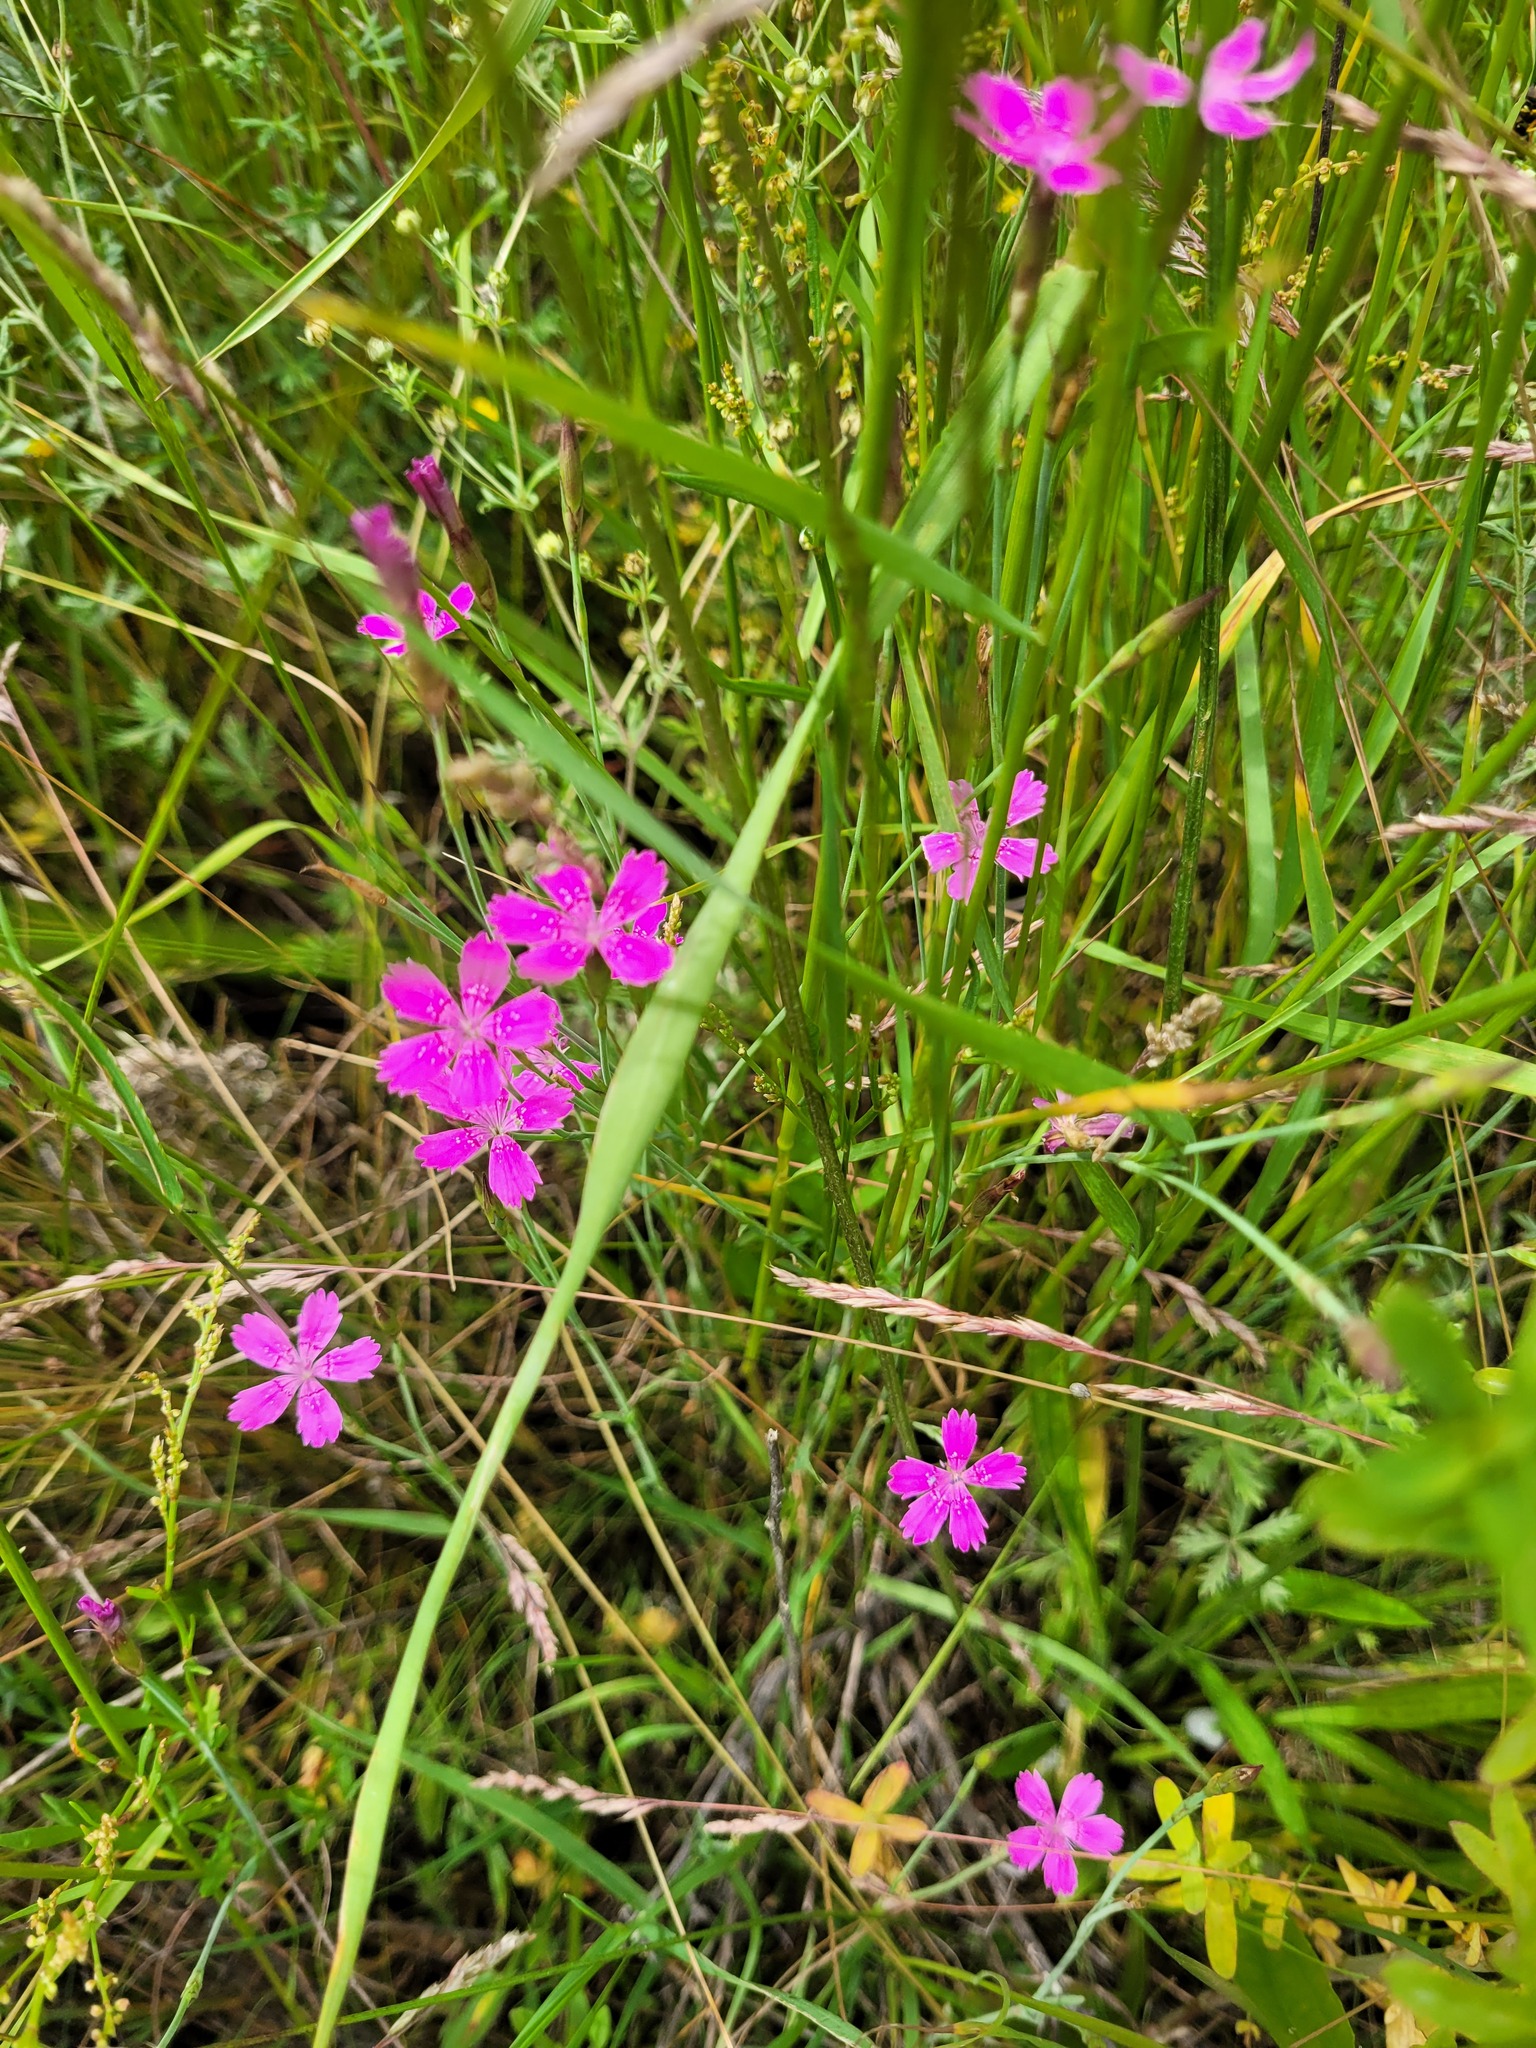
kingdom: Plantae
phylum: Tracheophyta
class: Magnoliopsida
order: Caryophyllales
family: Caryophyllaceae
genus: Dianthus
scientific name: Dianthus deltoides
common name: Maiden pink
